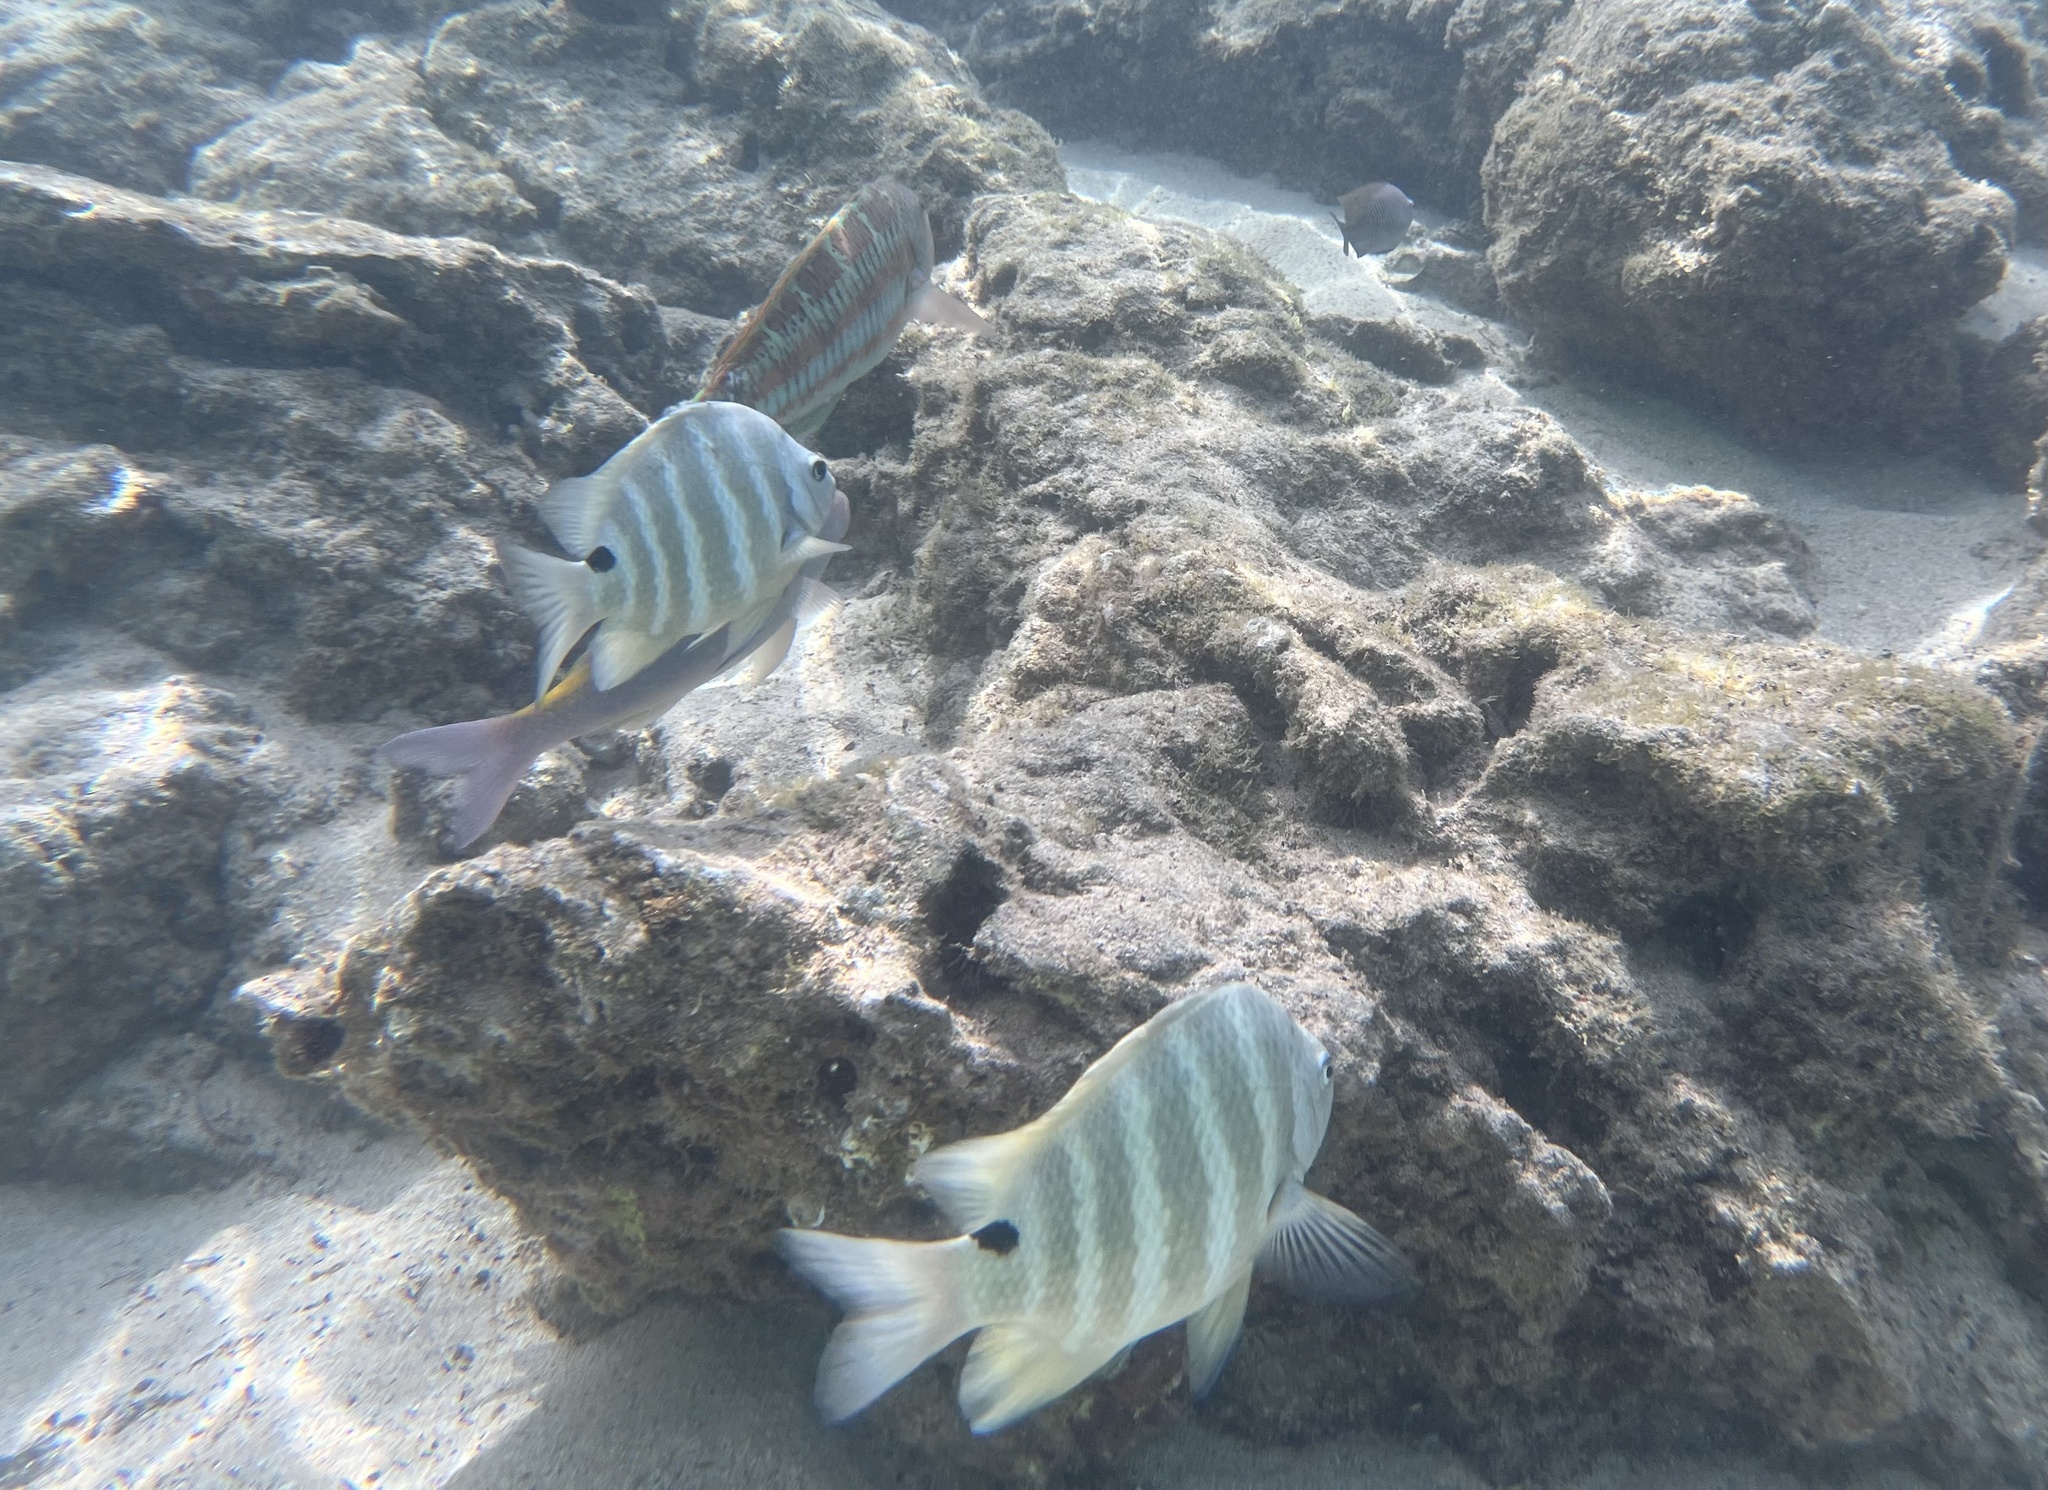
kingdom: Animalia
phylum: Chordata
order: Perciformes
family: Pomacentridae
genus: Abudefduf
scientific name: Abudefduf sordidus
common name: Blackspot sergeant
